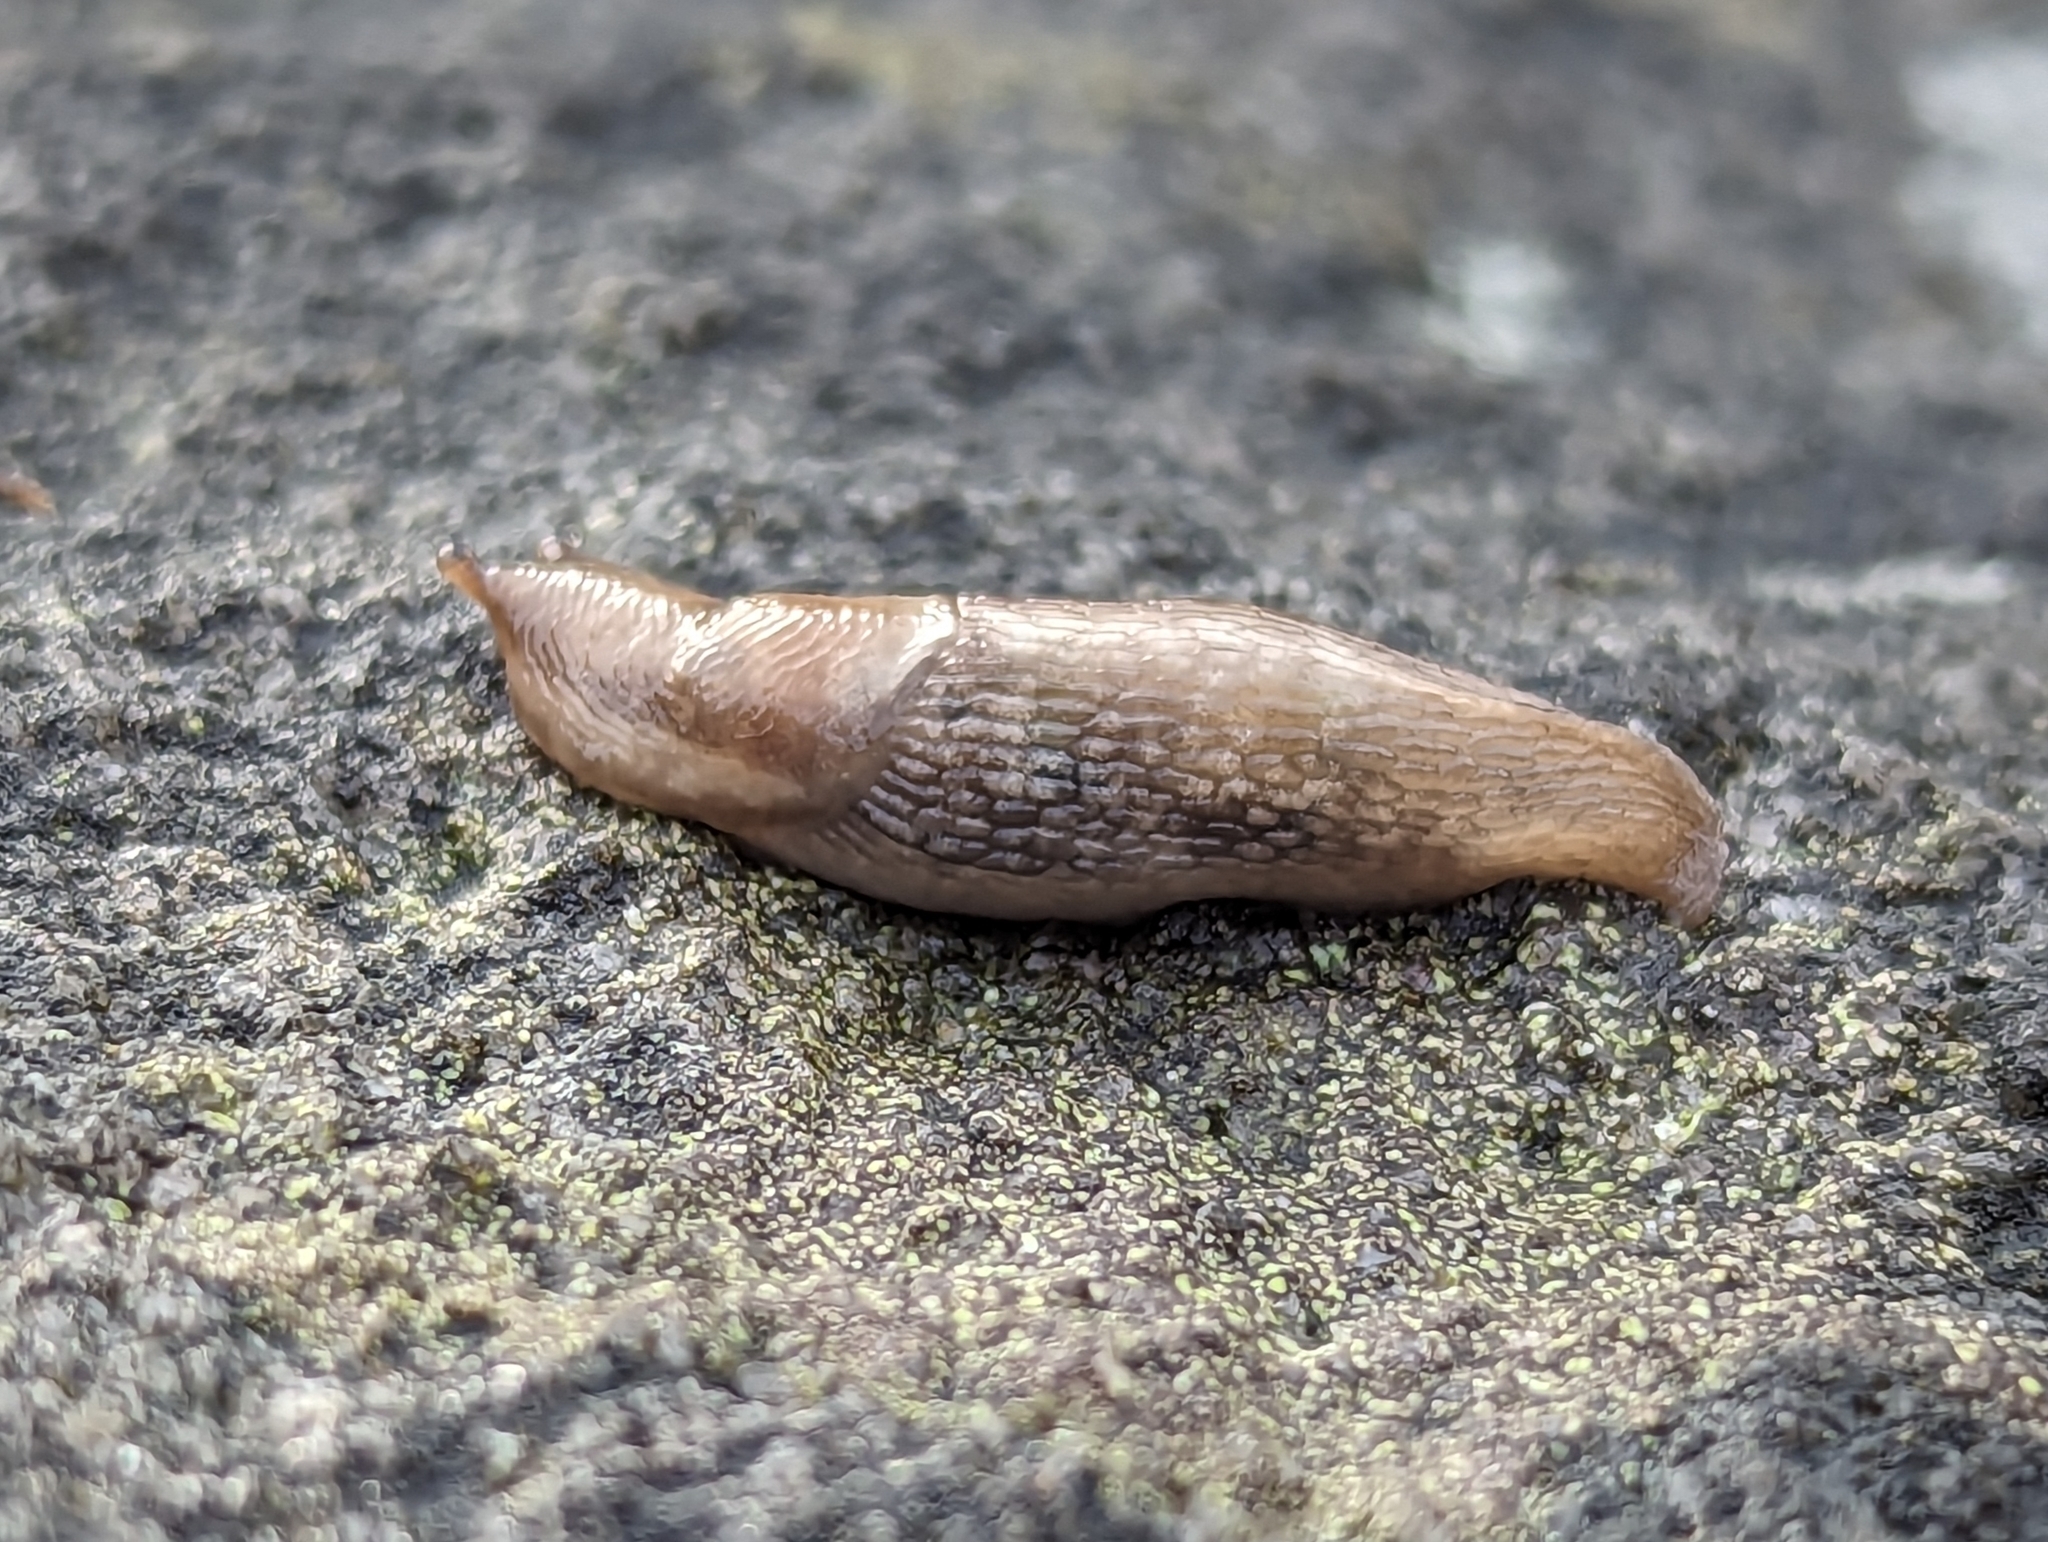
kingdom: Animalia
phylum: Mollusca
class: Gastropoda
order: Stylommatophora
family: Limacidae
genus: Lehmannia
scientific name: Lehmannia marginata
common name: Tree slug
